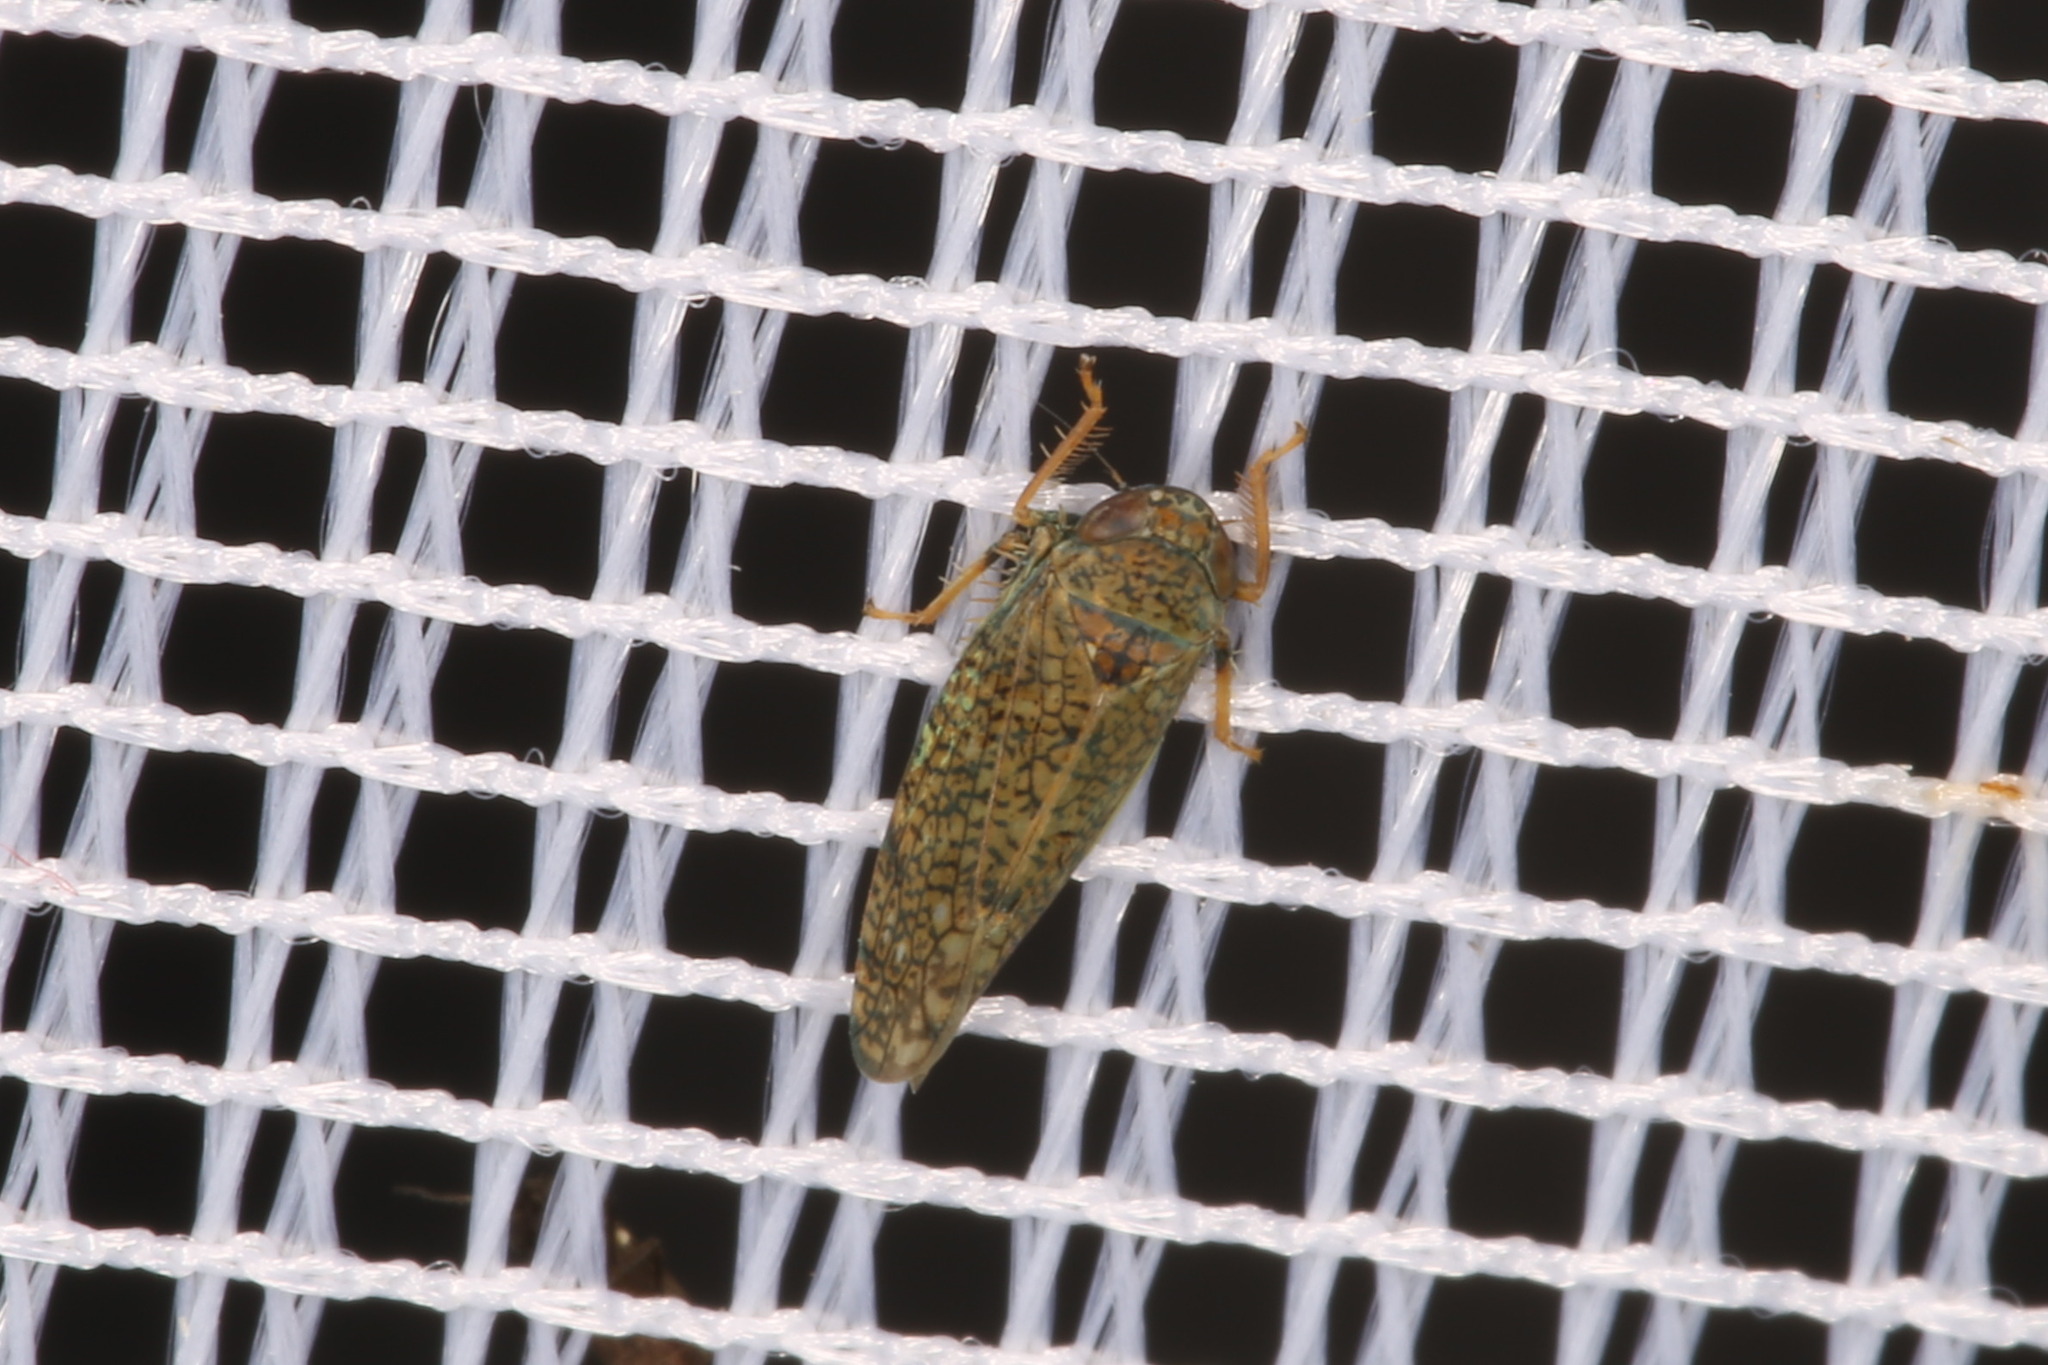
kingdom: Animalia
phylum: Arthropoda
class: Insecta
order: Hemiptera
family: Cicadellidae
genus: Orientus
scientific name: Orientus ishidae
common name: Japanese leafhopper
